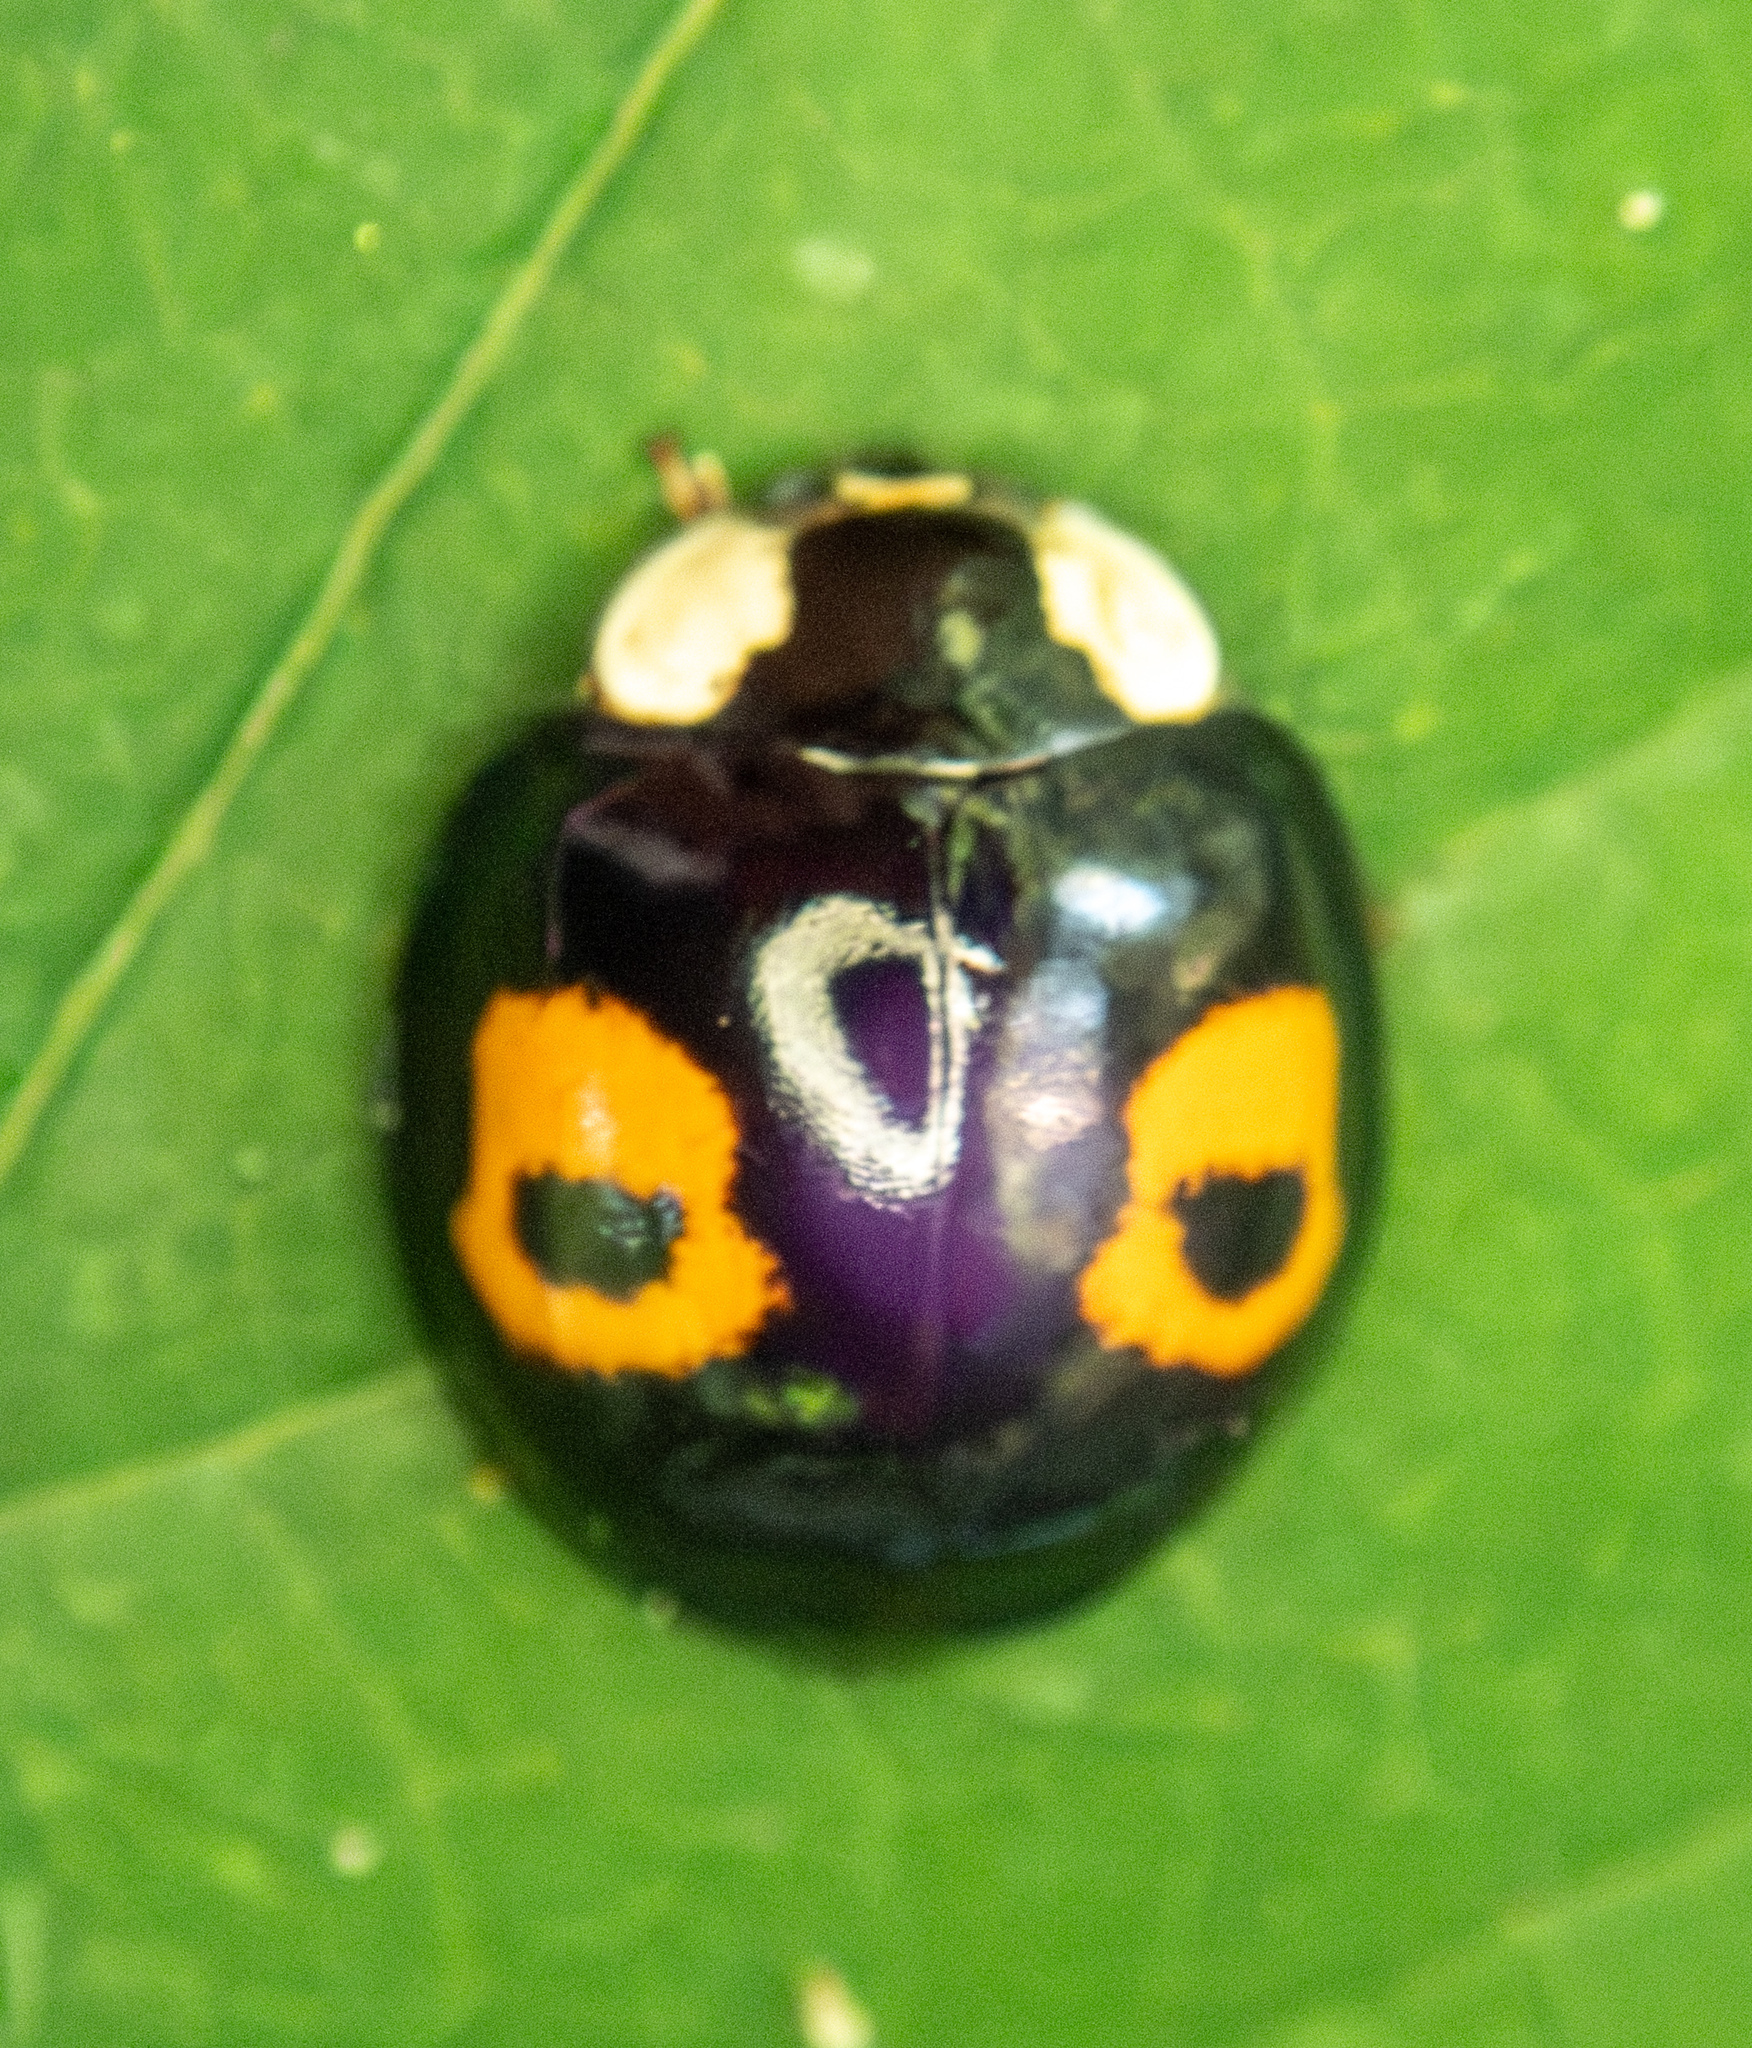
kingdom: Animalia
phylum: Arthropoda
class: Insecta
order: Coleoptera
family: Coccinellidae
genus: Harmonia
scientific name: Harmonia axyridis
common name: Harlequin ladybird
